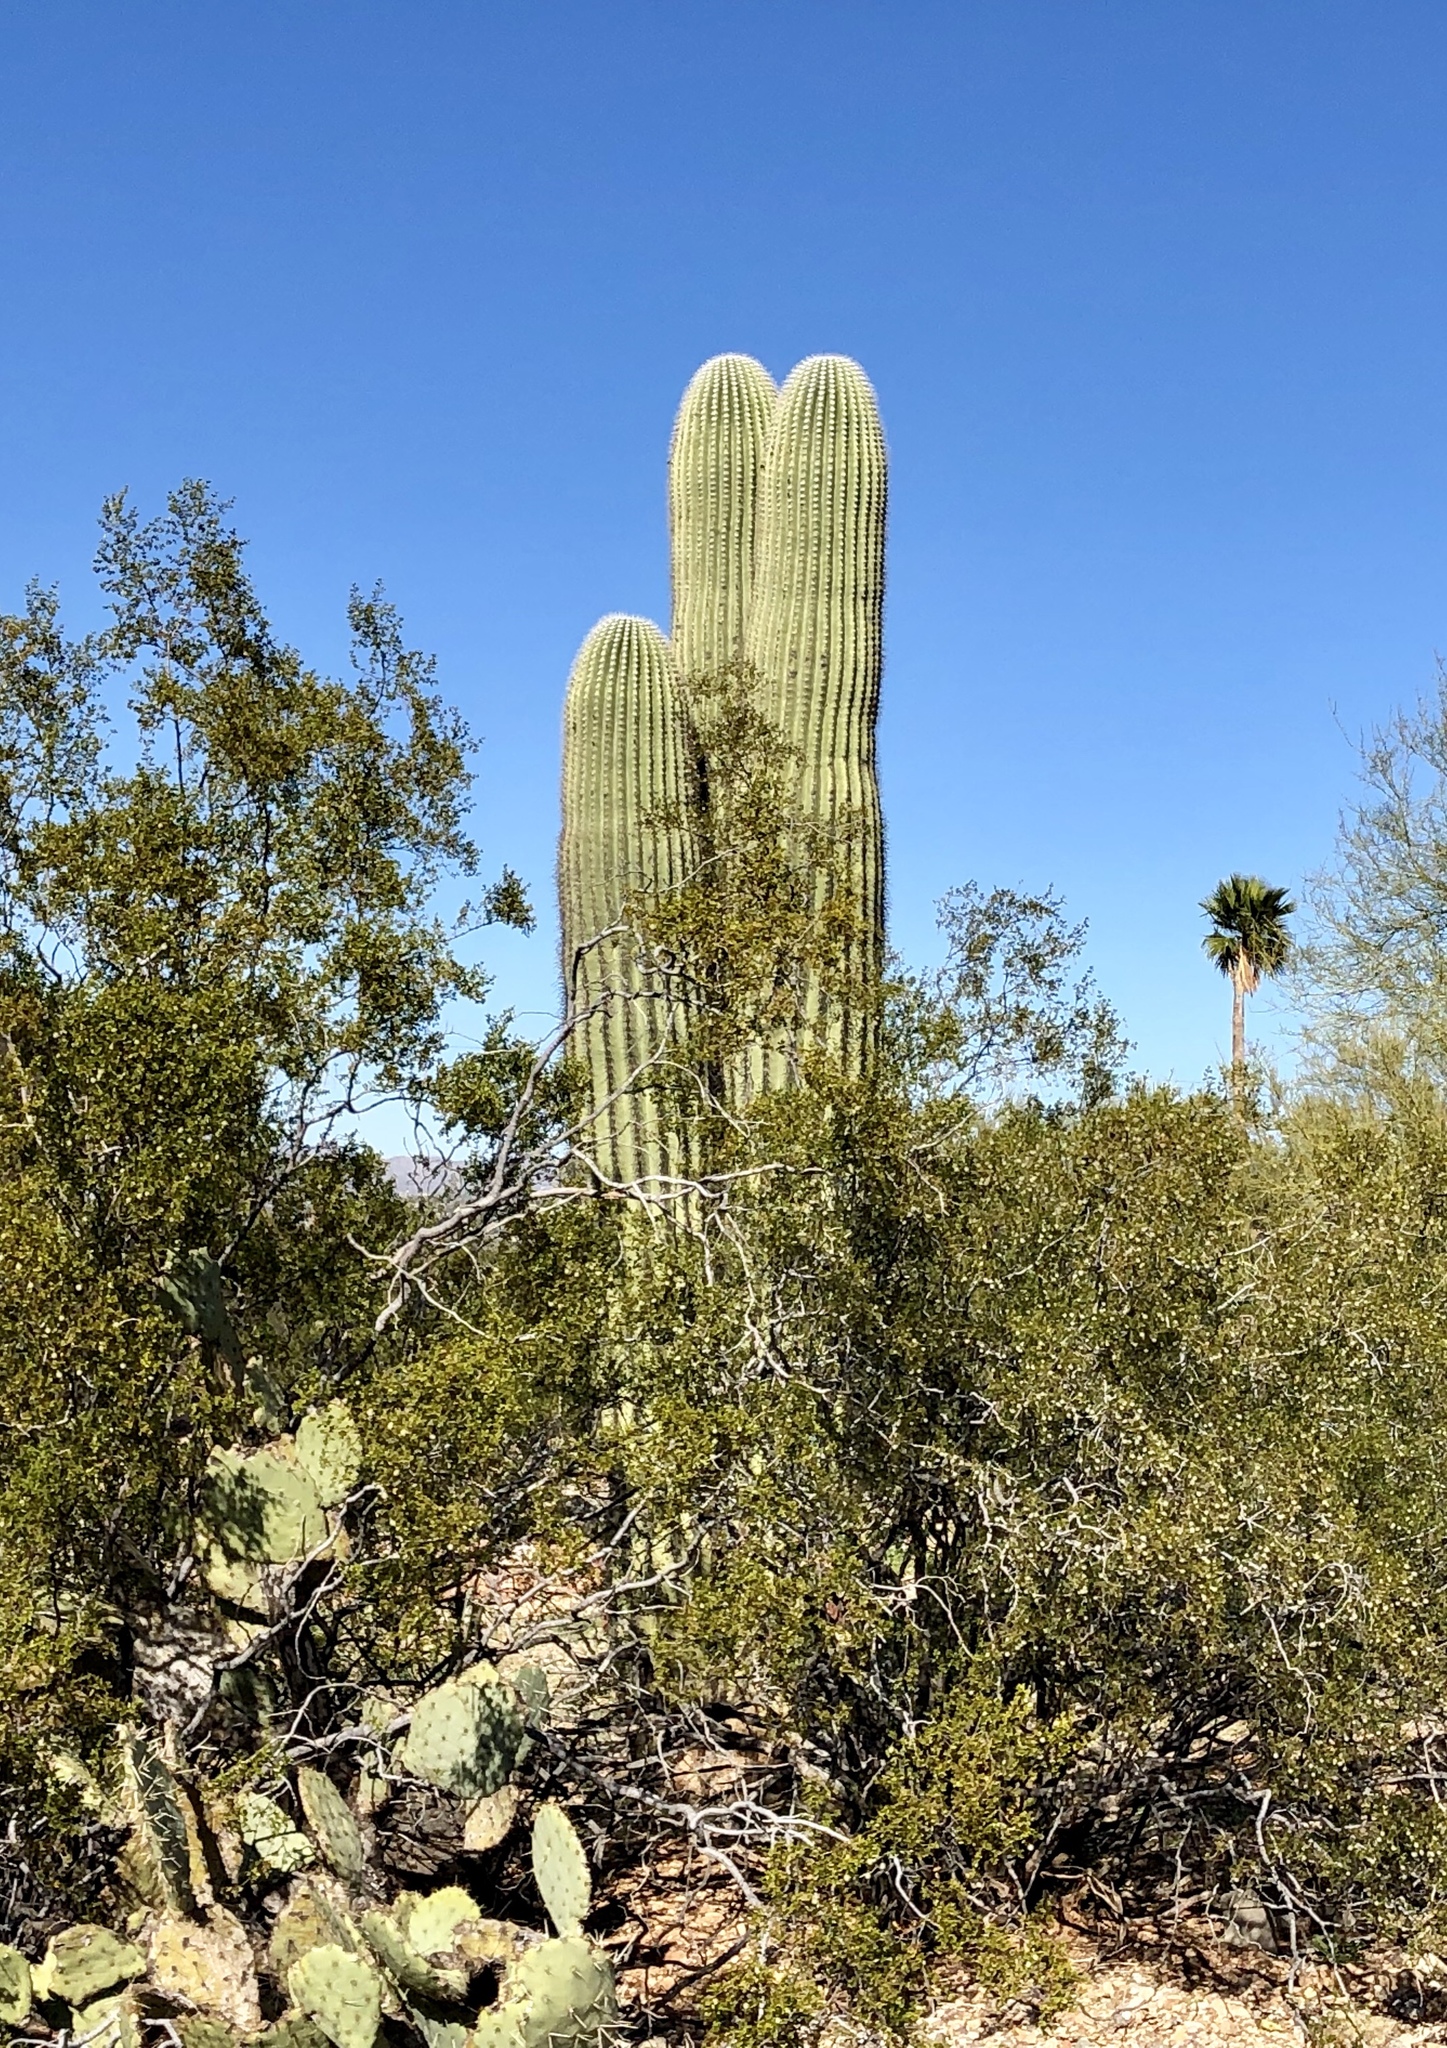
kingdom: Plantae
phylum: Tracheophyta
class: Magnoliopsida
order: Caryophyllales
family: Cactaceae
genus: Carnegiea
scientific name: Carnegiea gigantea
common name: Saguaro
